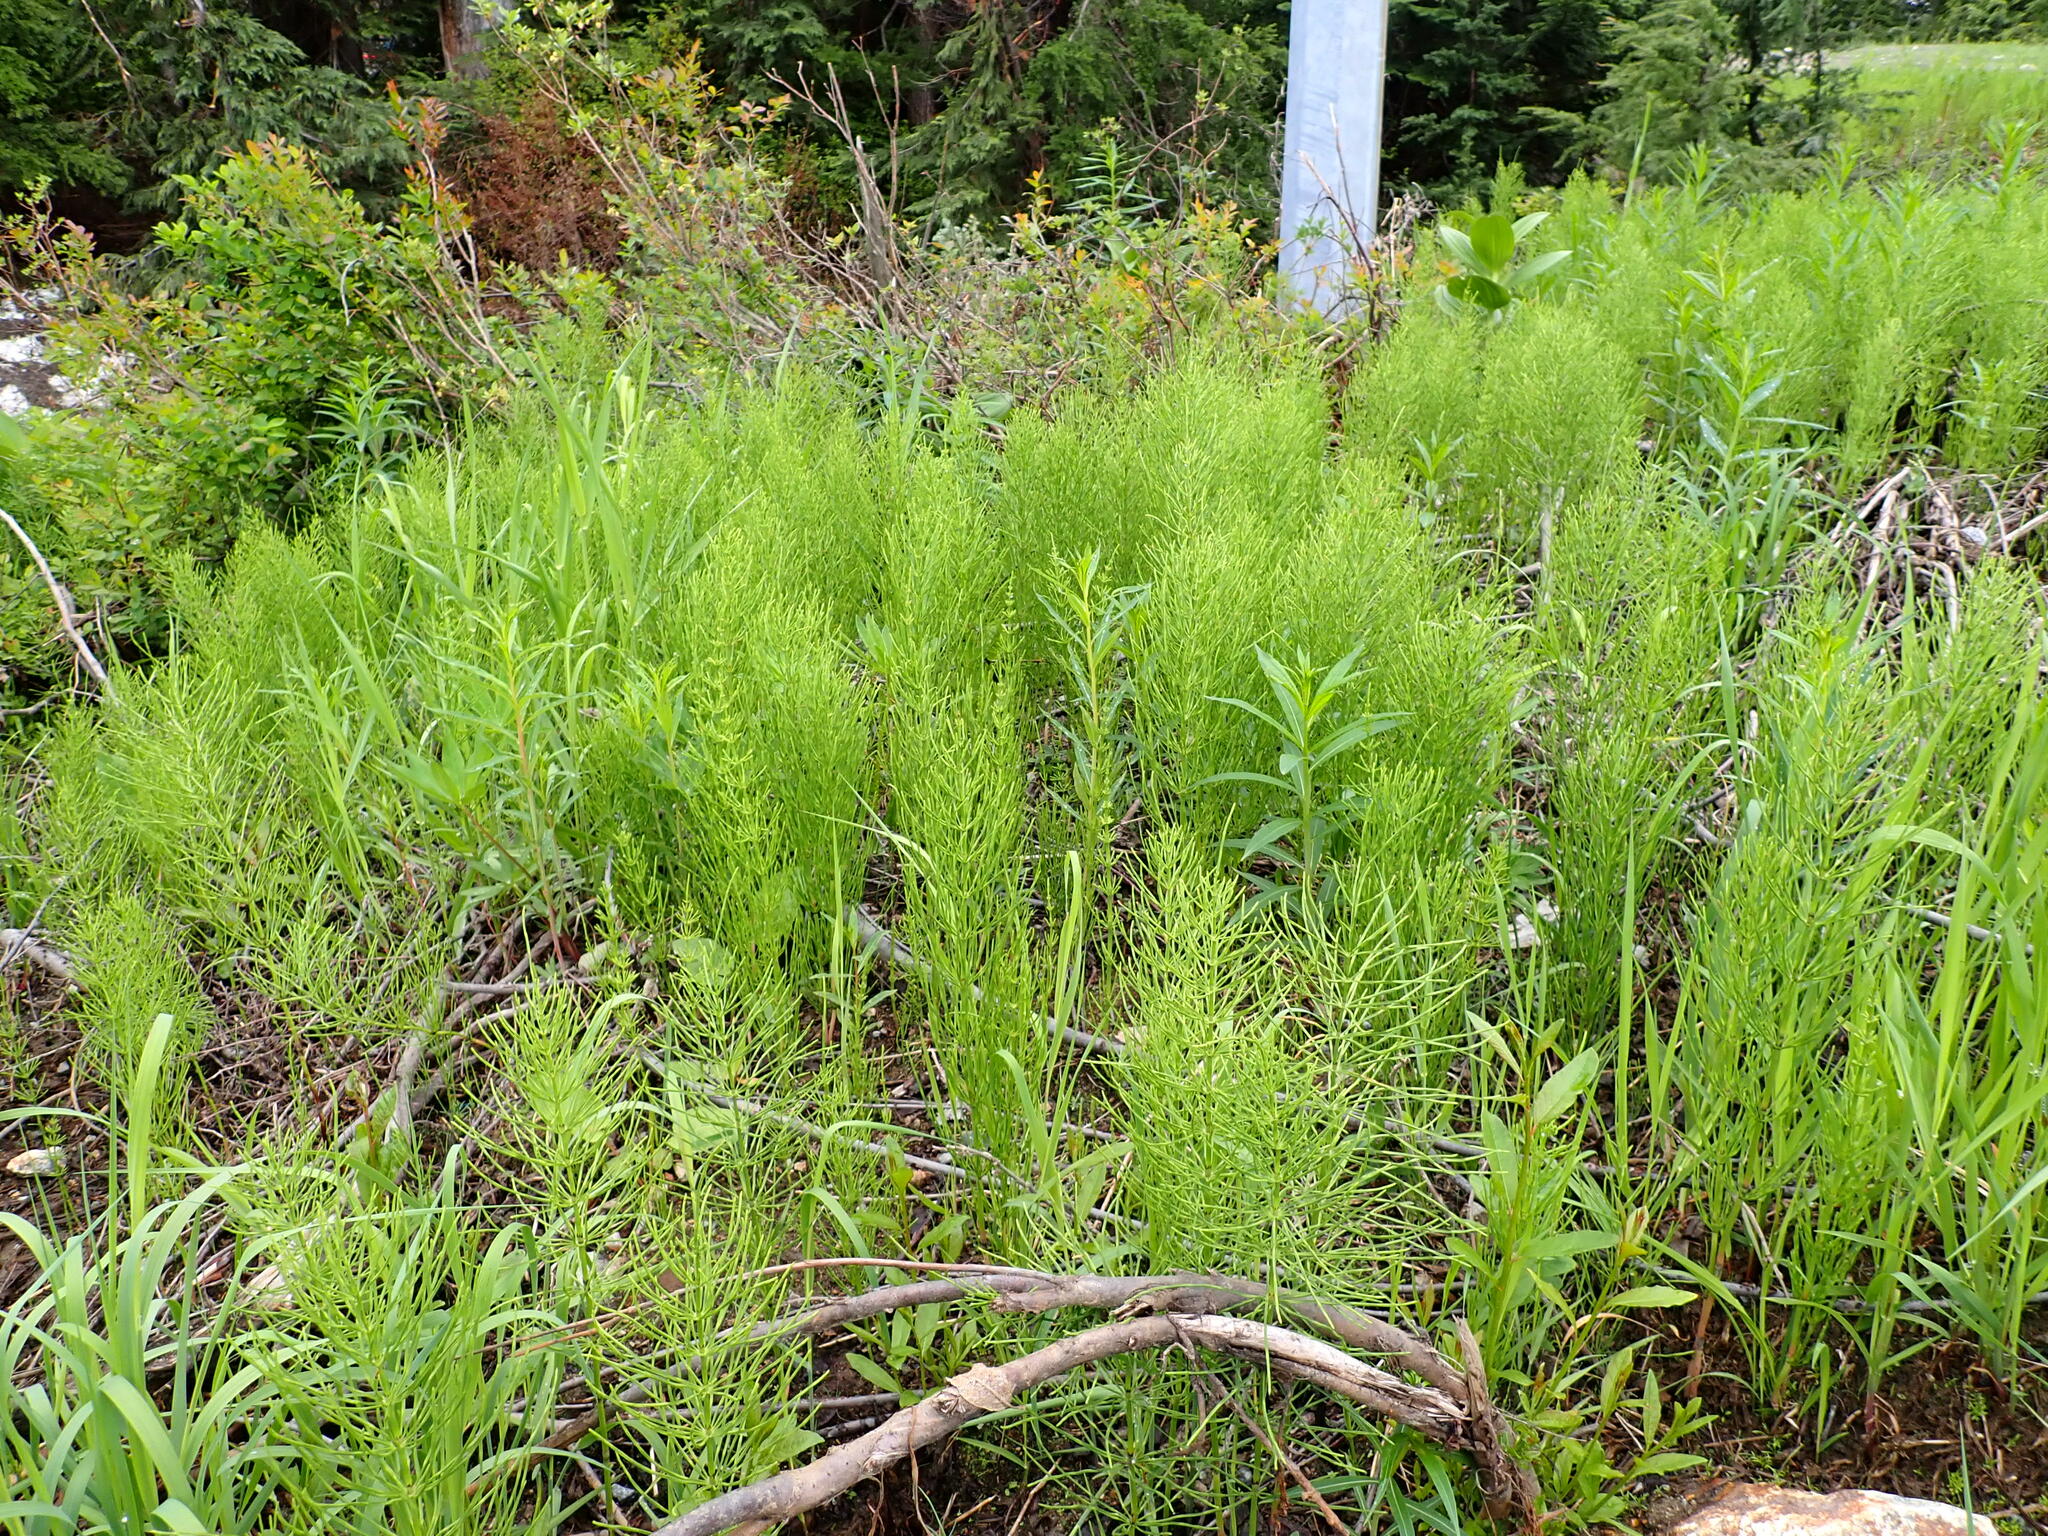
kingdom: Plantae
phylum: Tracheophyta
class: Polypodiopsida
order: Equisetales
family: Equisetaceae
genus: Equisetum
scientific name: Equisetum arvense
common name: Field horsetail
